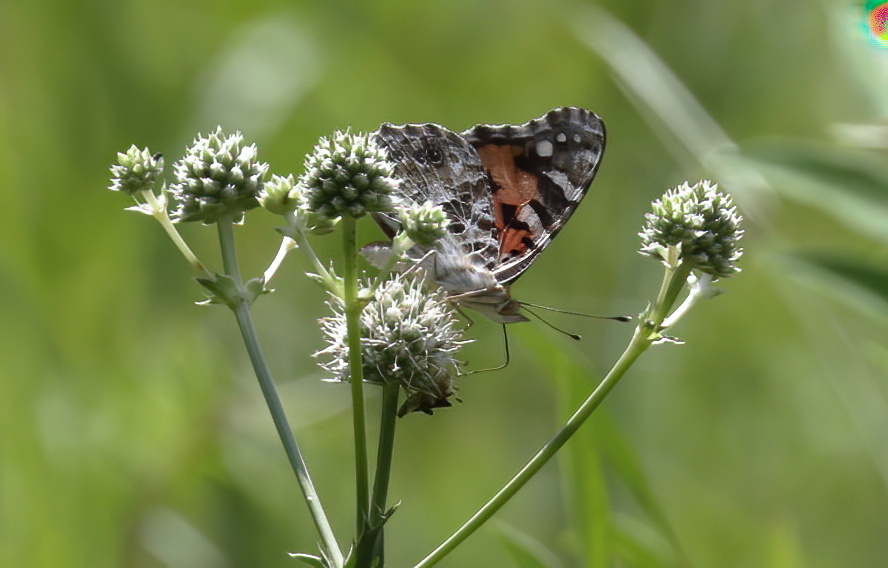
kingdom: Animalia
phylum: Arthropoda
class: Insecta
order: Lepidoptera
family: Nymphalidae
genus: Vanessa
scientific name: Vanessa cardui
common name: Painted lady
